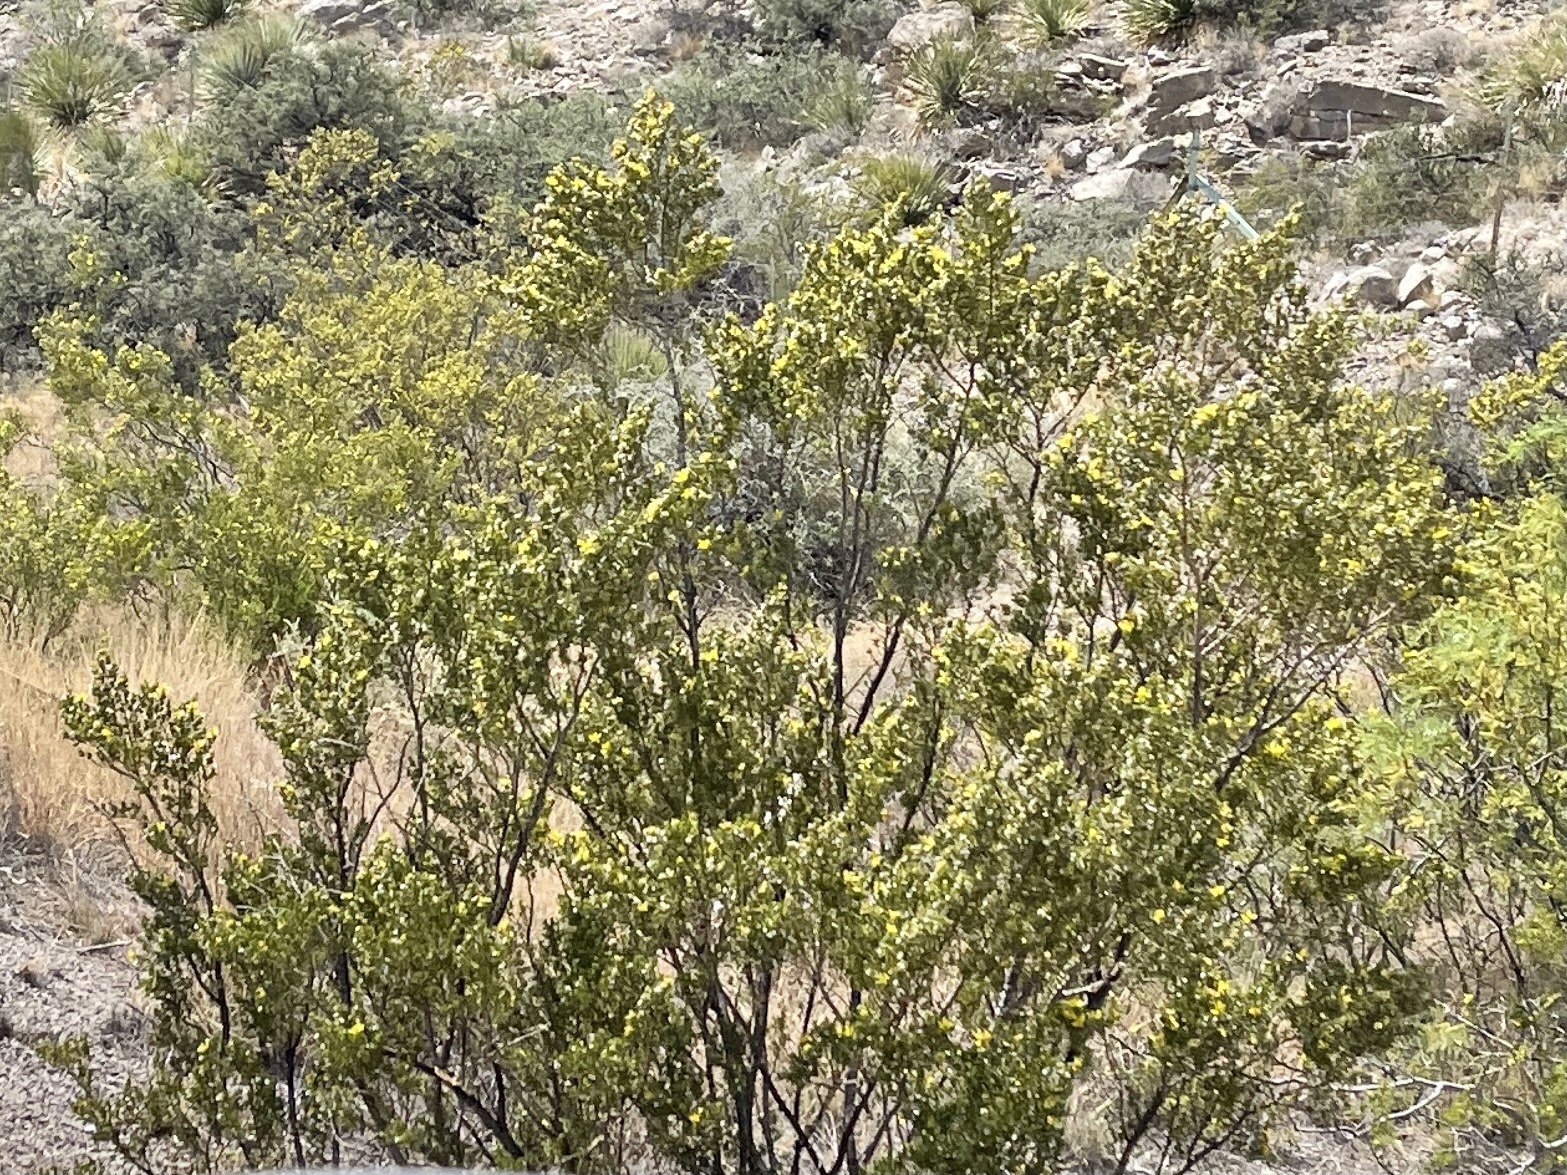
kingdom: Plantae
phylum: Tracheophyta
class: Magnoliopsida
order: Zygophyllales
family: Zygophyllaceae
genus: Larrea
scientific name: Larrea tridentata
